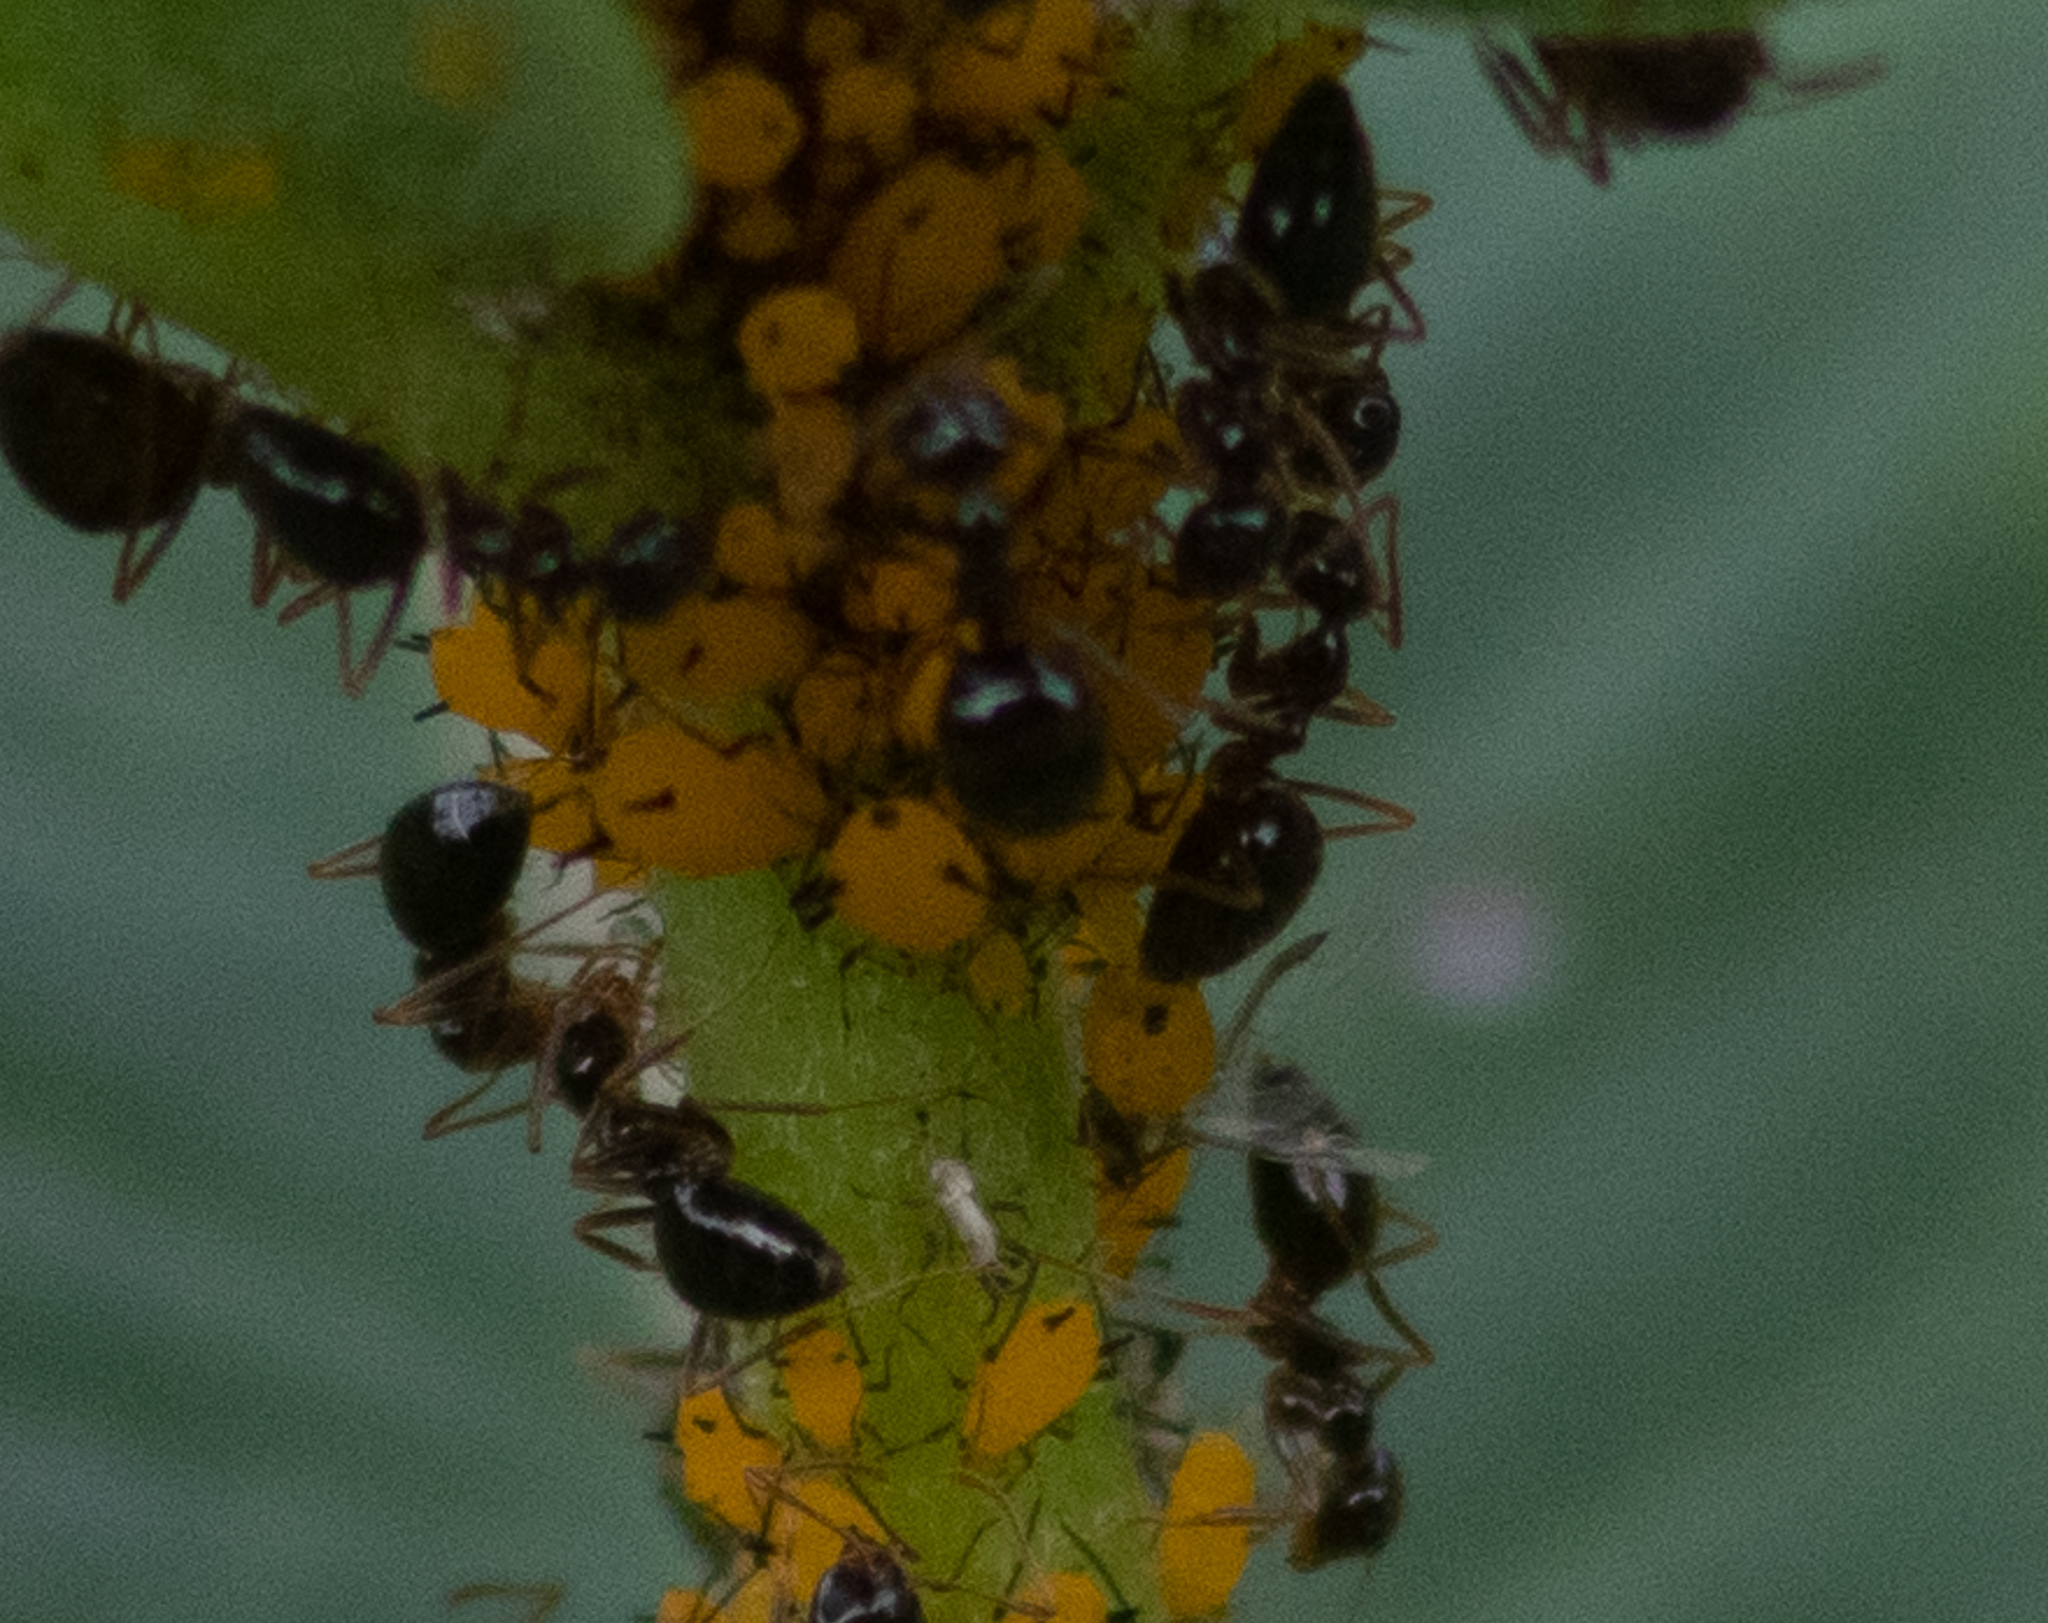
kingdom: Animalia
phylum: Arthropoda
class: Insecta
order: Hemiptera
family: Aphididae
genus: Aphis
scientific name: Aphis nerii
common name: Oleander aphid
